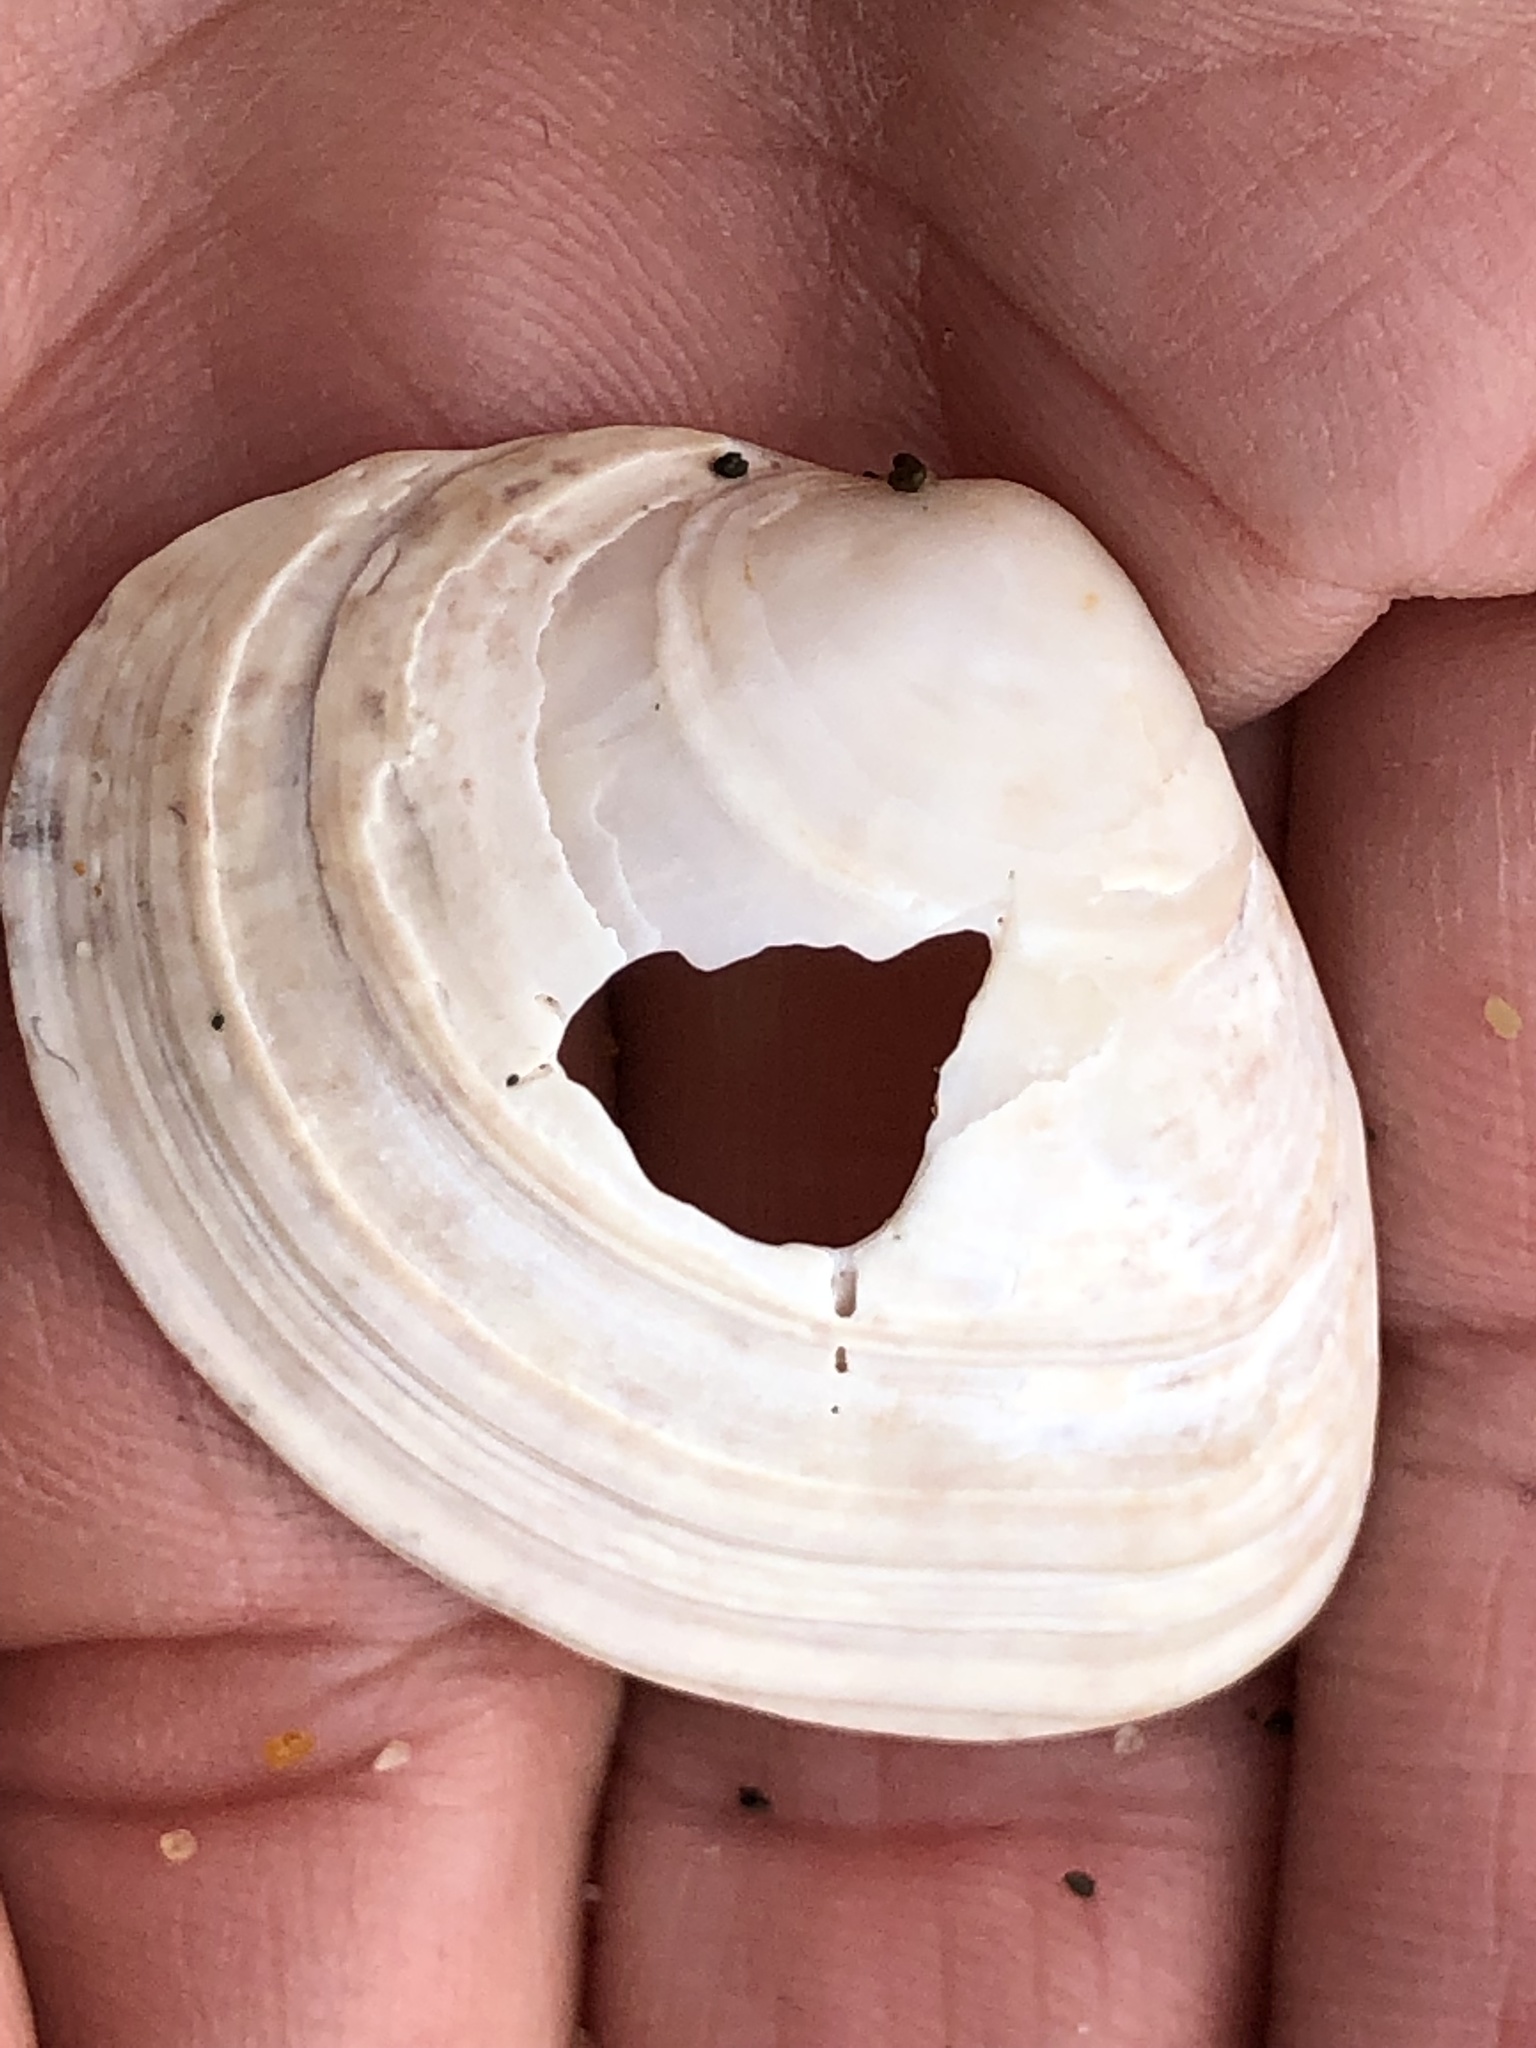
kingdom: Animalia
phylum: Mollusca
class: Bivalvia
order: Cardiida
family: Tellinidae
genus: Macoma
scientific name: Macoma nasuta
